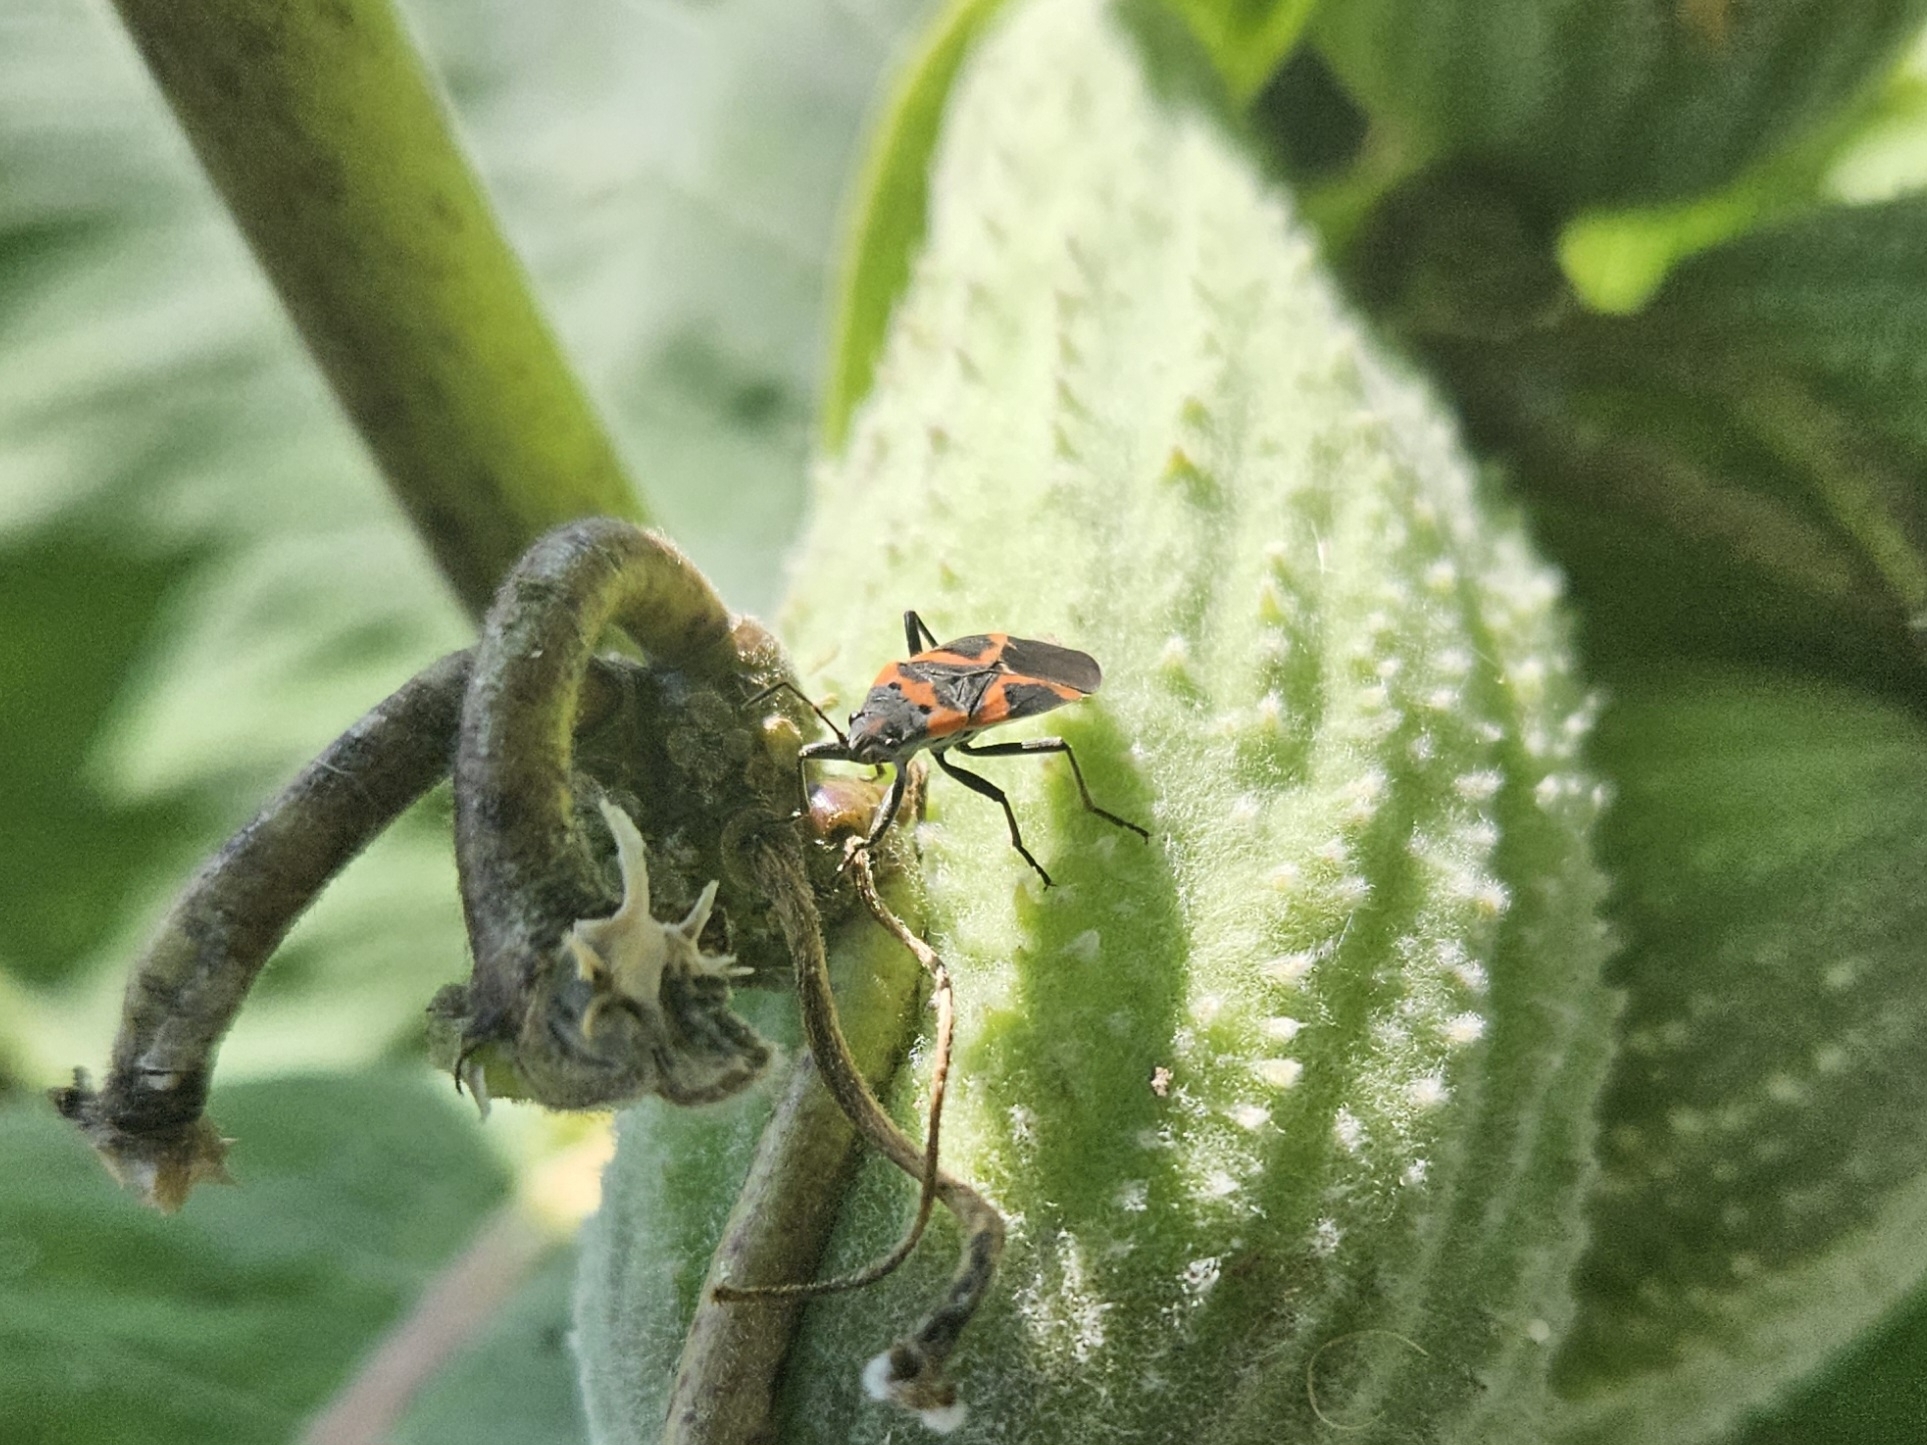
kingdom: Animalia
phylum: Arthropoda
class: Insecta
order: Hemiptera
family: Lygaeidae
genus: Lygaeus
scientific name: Lygaeus kalmii
